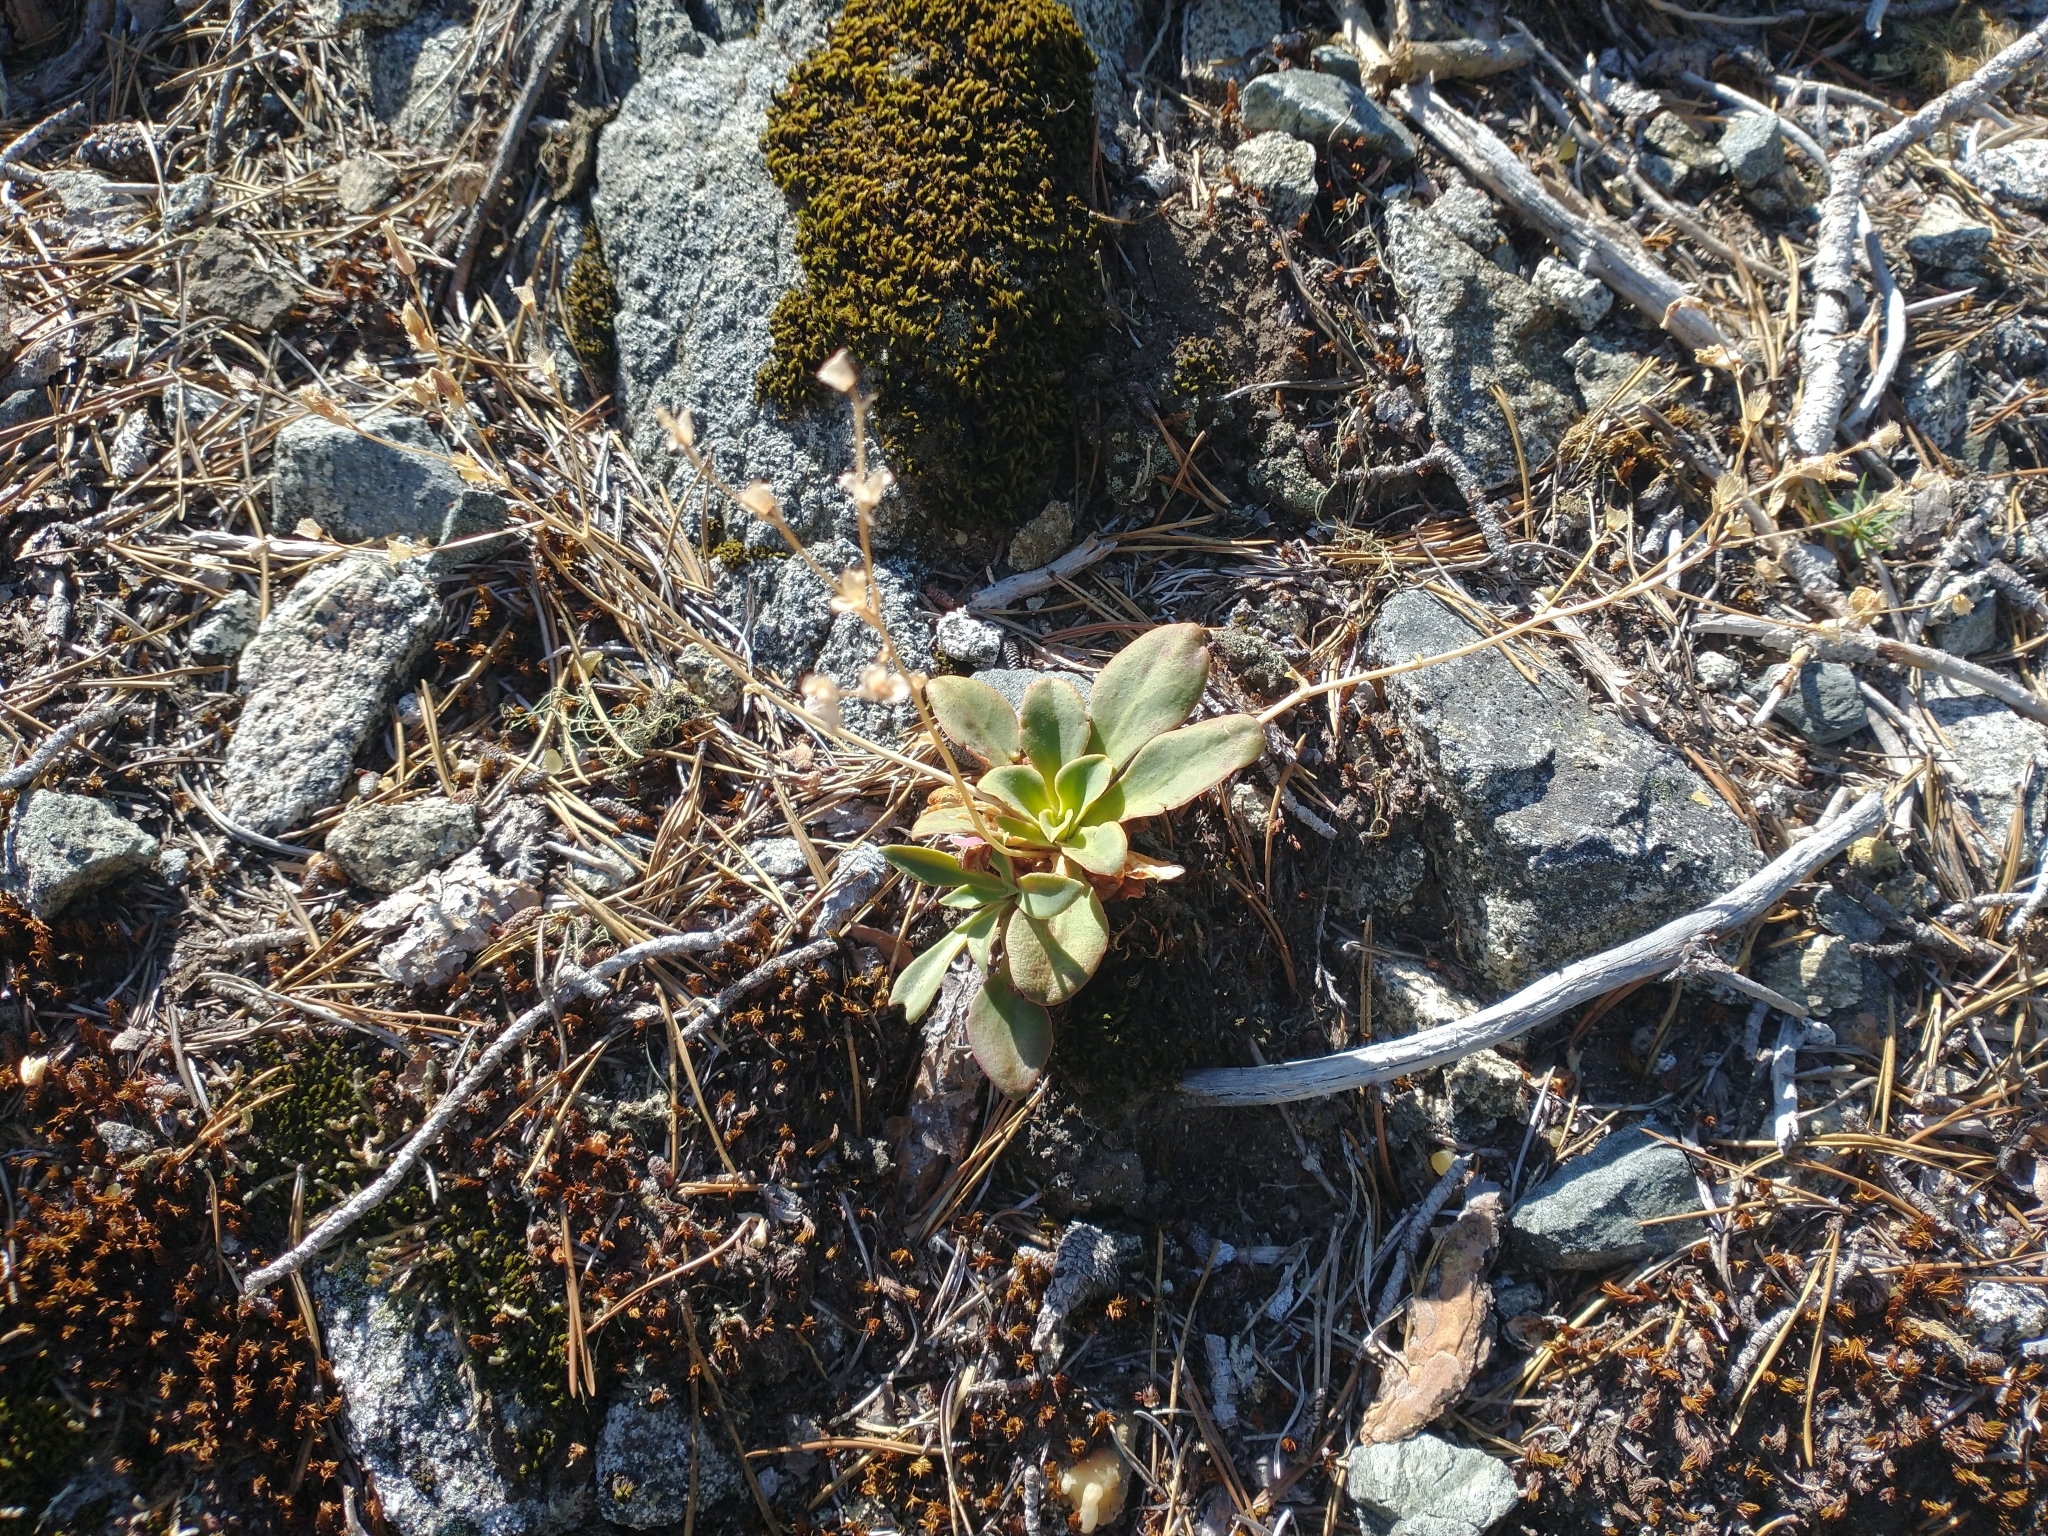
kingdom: Plantae
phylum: Tracheophyta
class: Magnoliopsida
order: Caryophyllales
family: Montiaceae
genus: Lewisia
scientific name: Lewisia cotyledon
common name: Siskiyou lewisia
